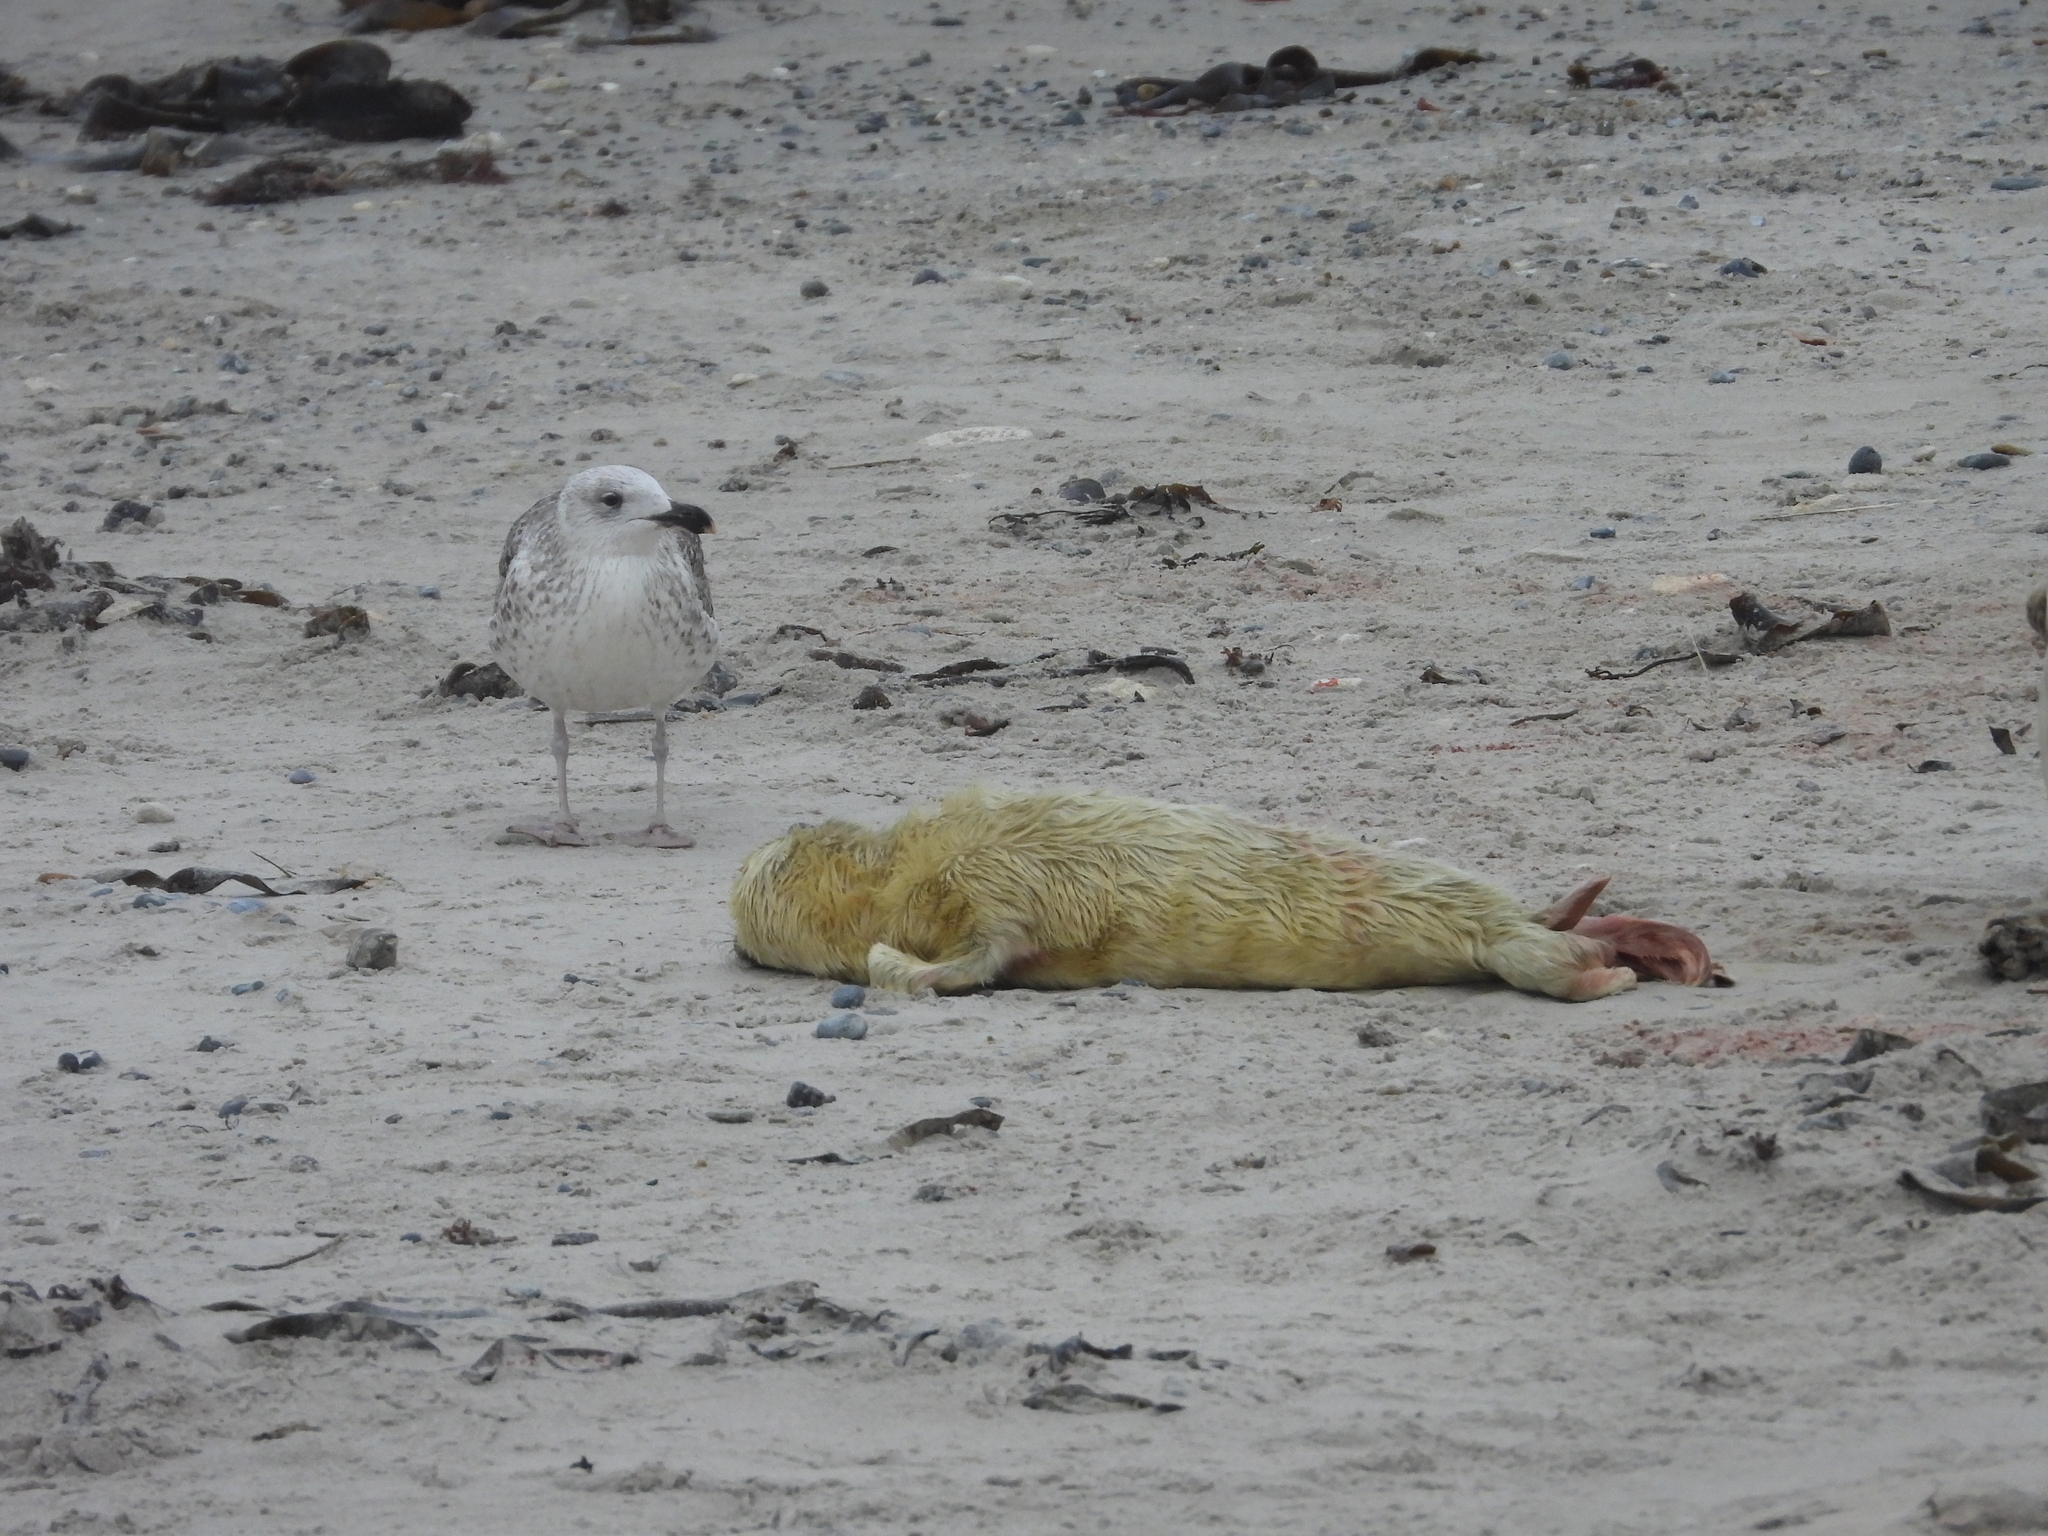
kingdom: Animalia
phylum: Chordata
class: Mammalia
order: Carnivora
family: Phocidae
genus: Halichoerus
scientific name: Halichoerus grypus
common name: Grey seal
